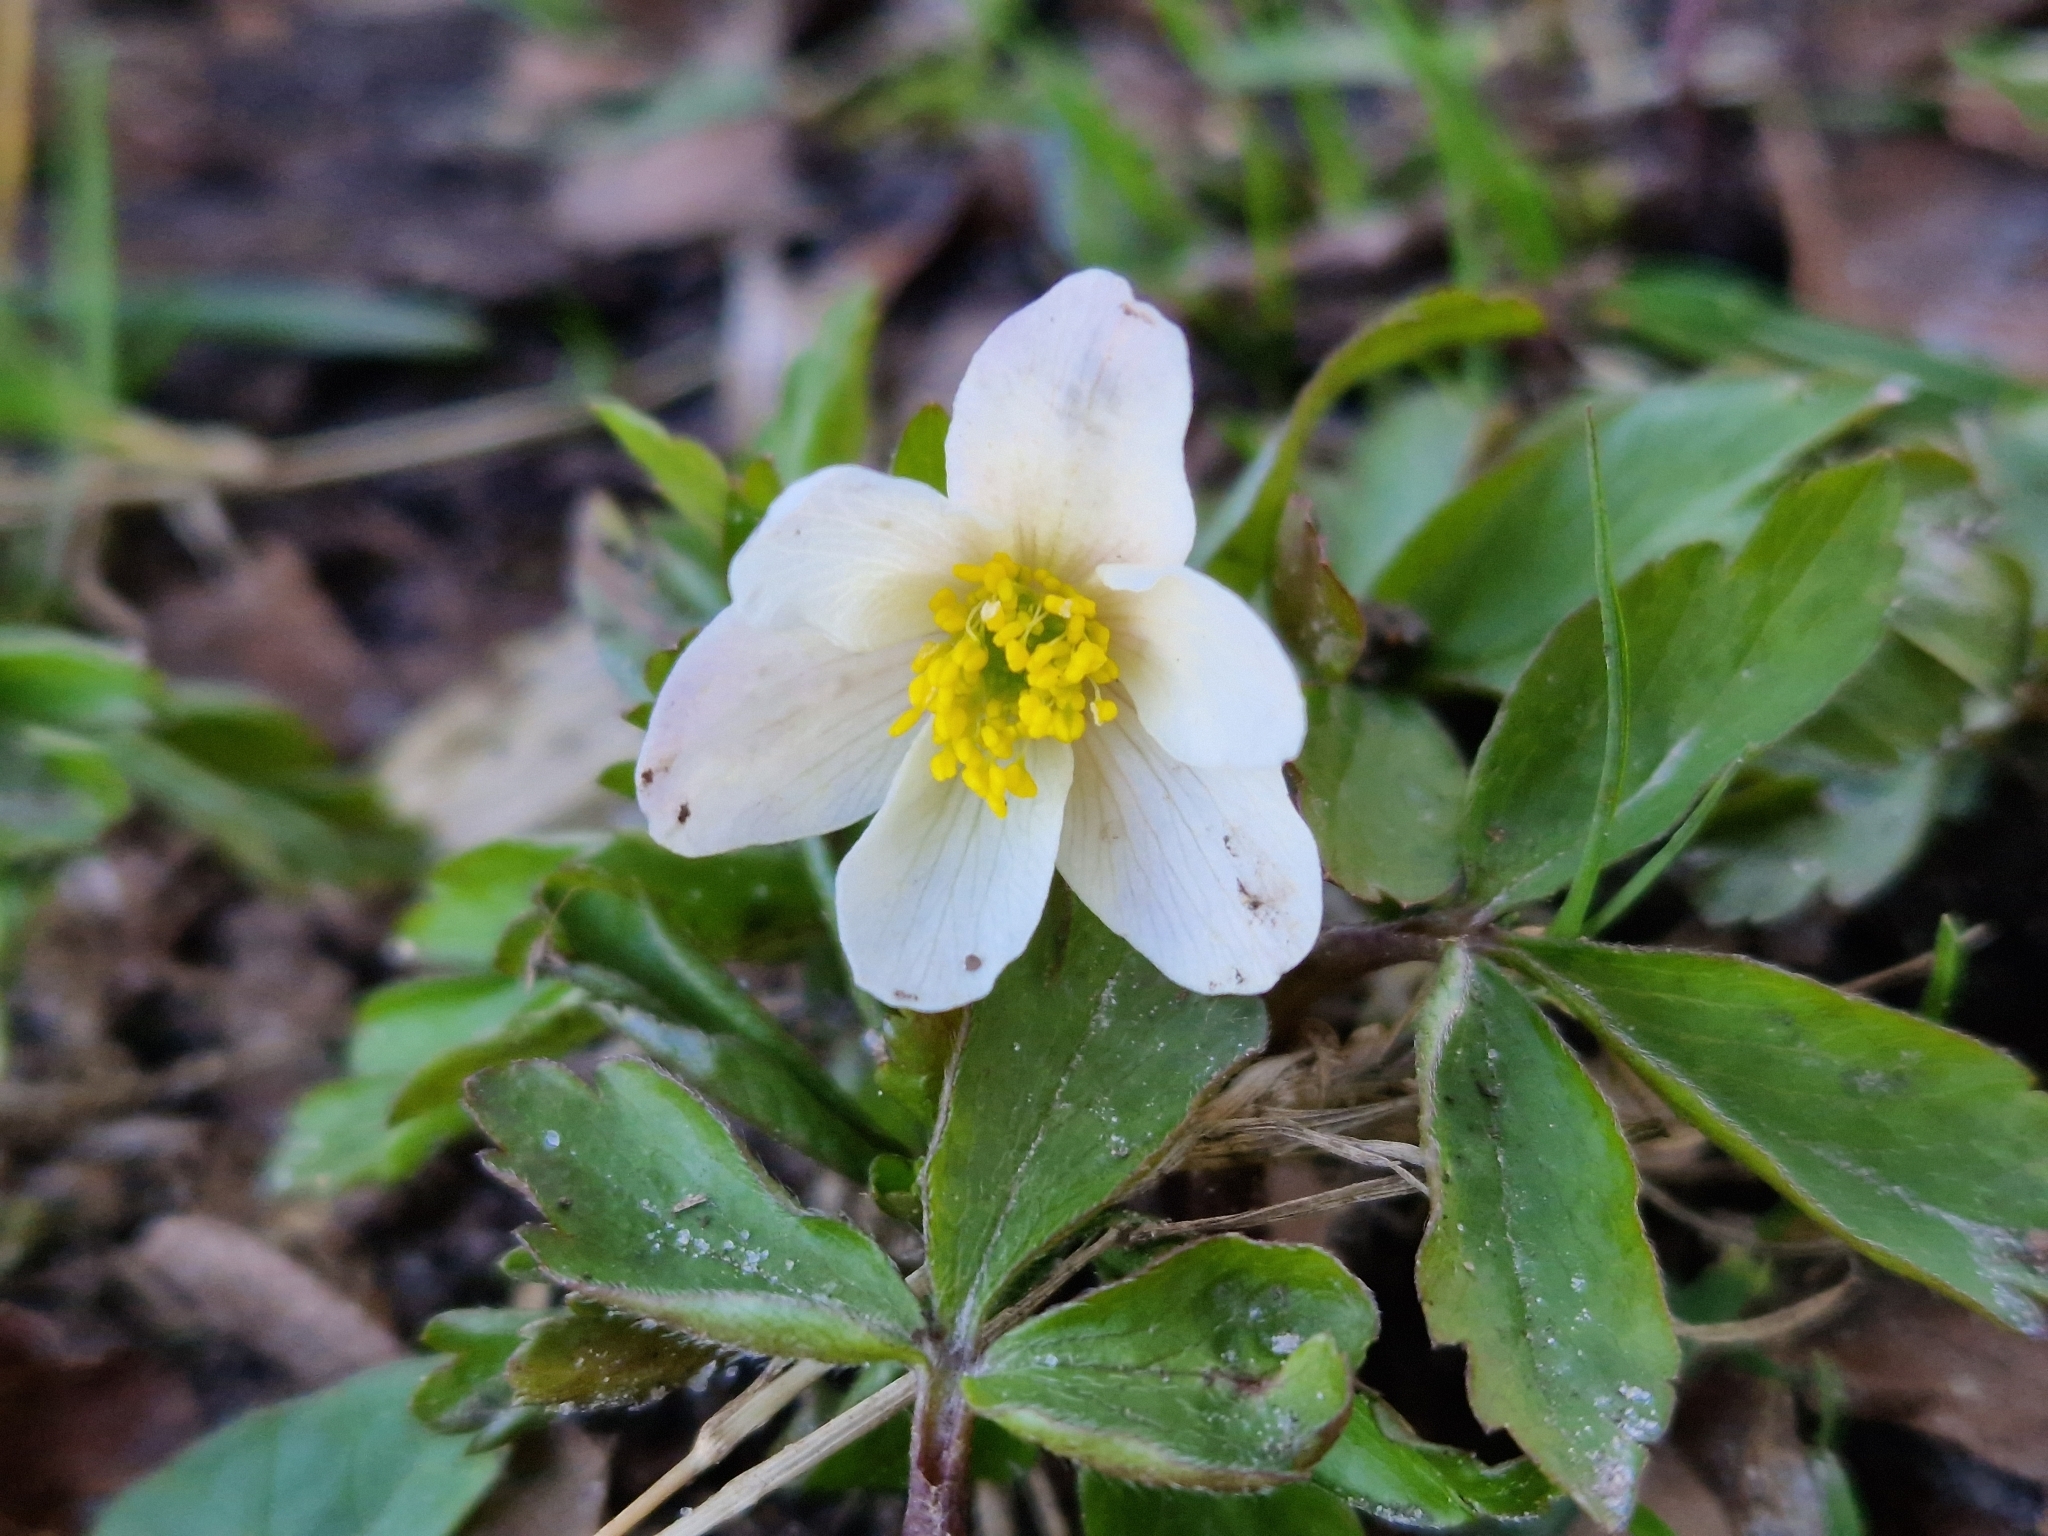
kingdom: Plantae
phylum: Tracheophyta
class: Magnoliopsida
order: Ranunculales
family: Ranunculaceae
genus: Anemone
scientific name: Anemone nemorosa
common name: Wood anemone
